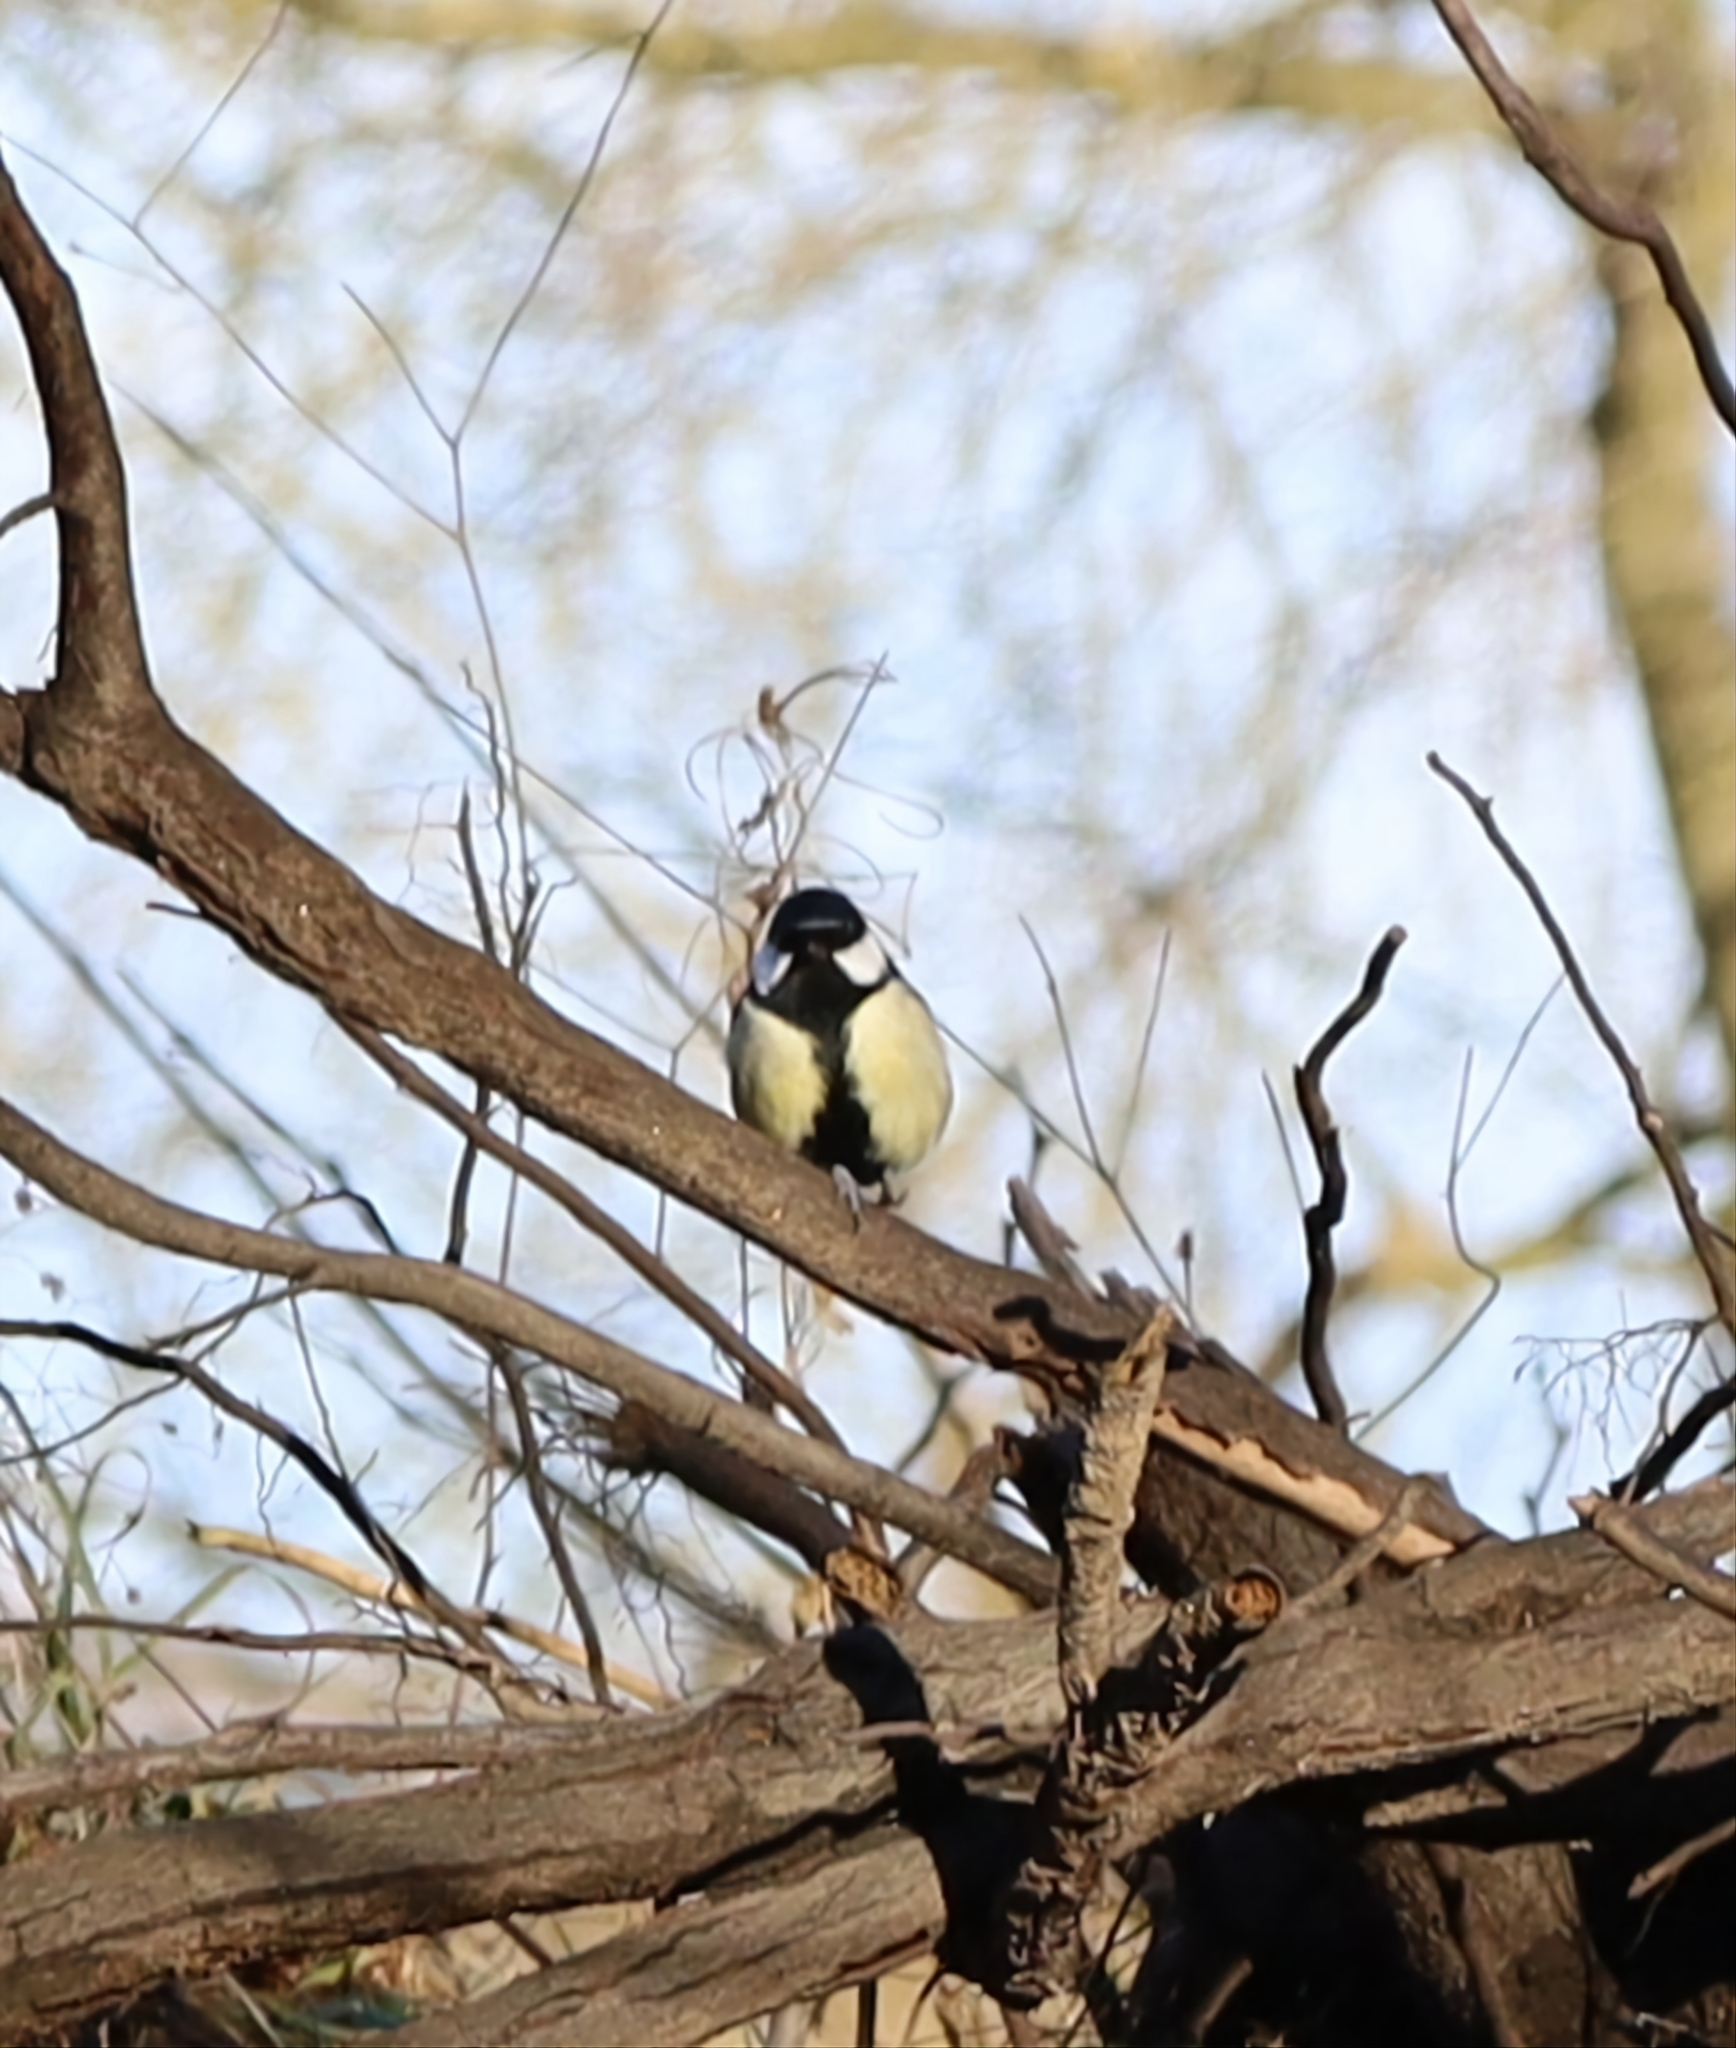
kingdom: Animalia
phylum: Chordata
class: Aves
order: Passeriformes
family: Paridae
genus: Parus
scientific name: Parus major
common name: Great tit
